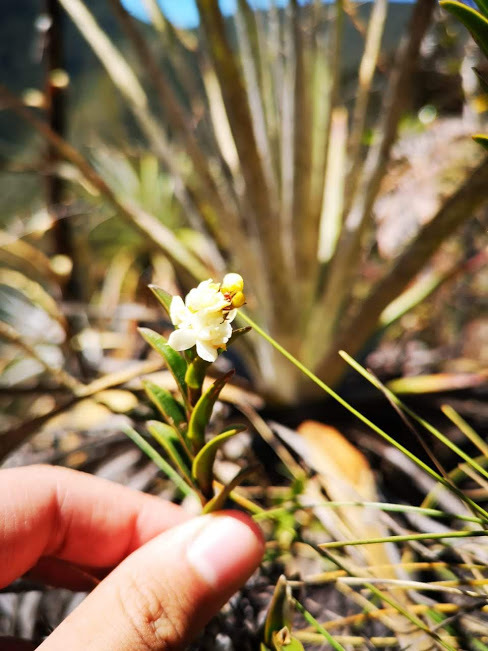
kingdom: Plantae
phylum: Tracheophyta
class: Liliopsida
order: Asparagales
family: Orchidaceae
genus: Epidendrum
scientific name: Epidendrum chioneum
